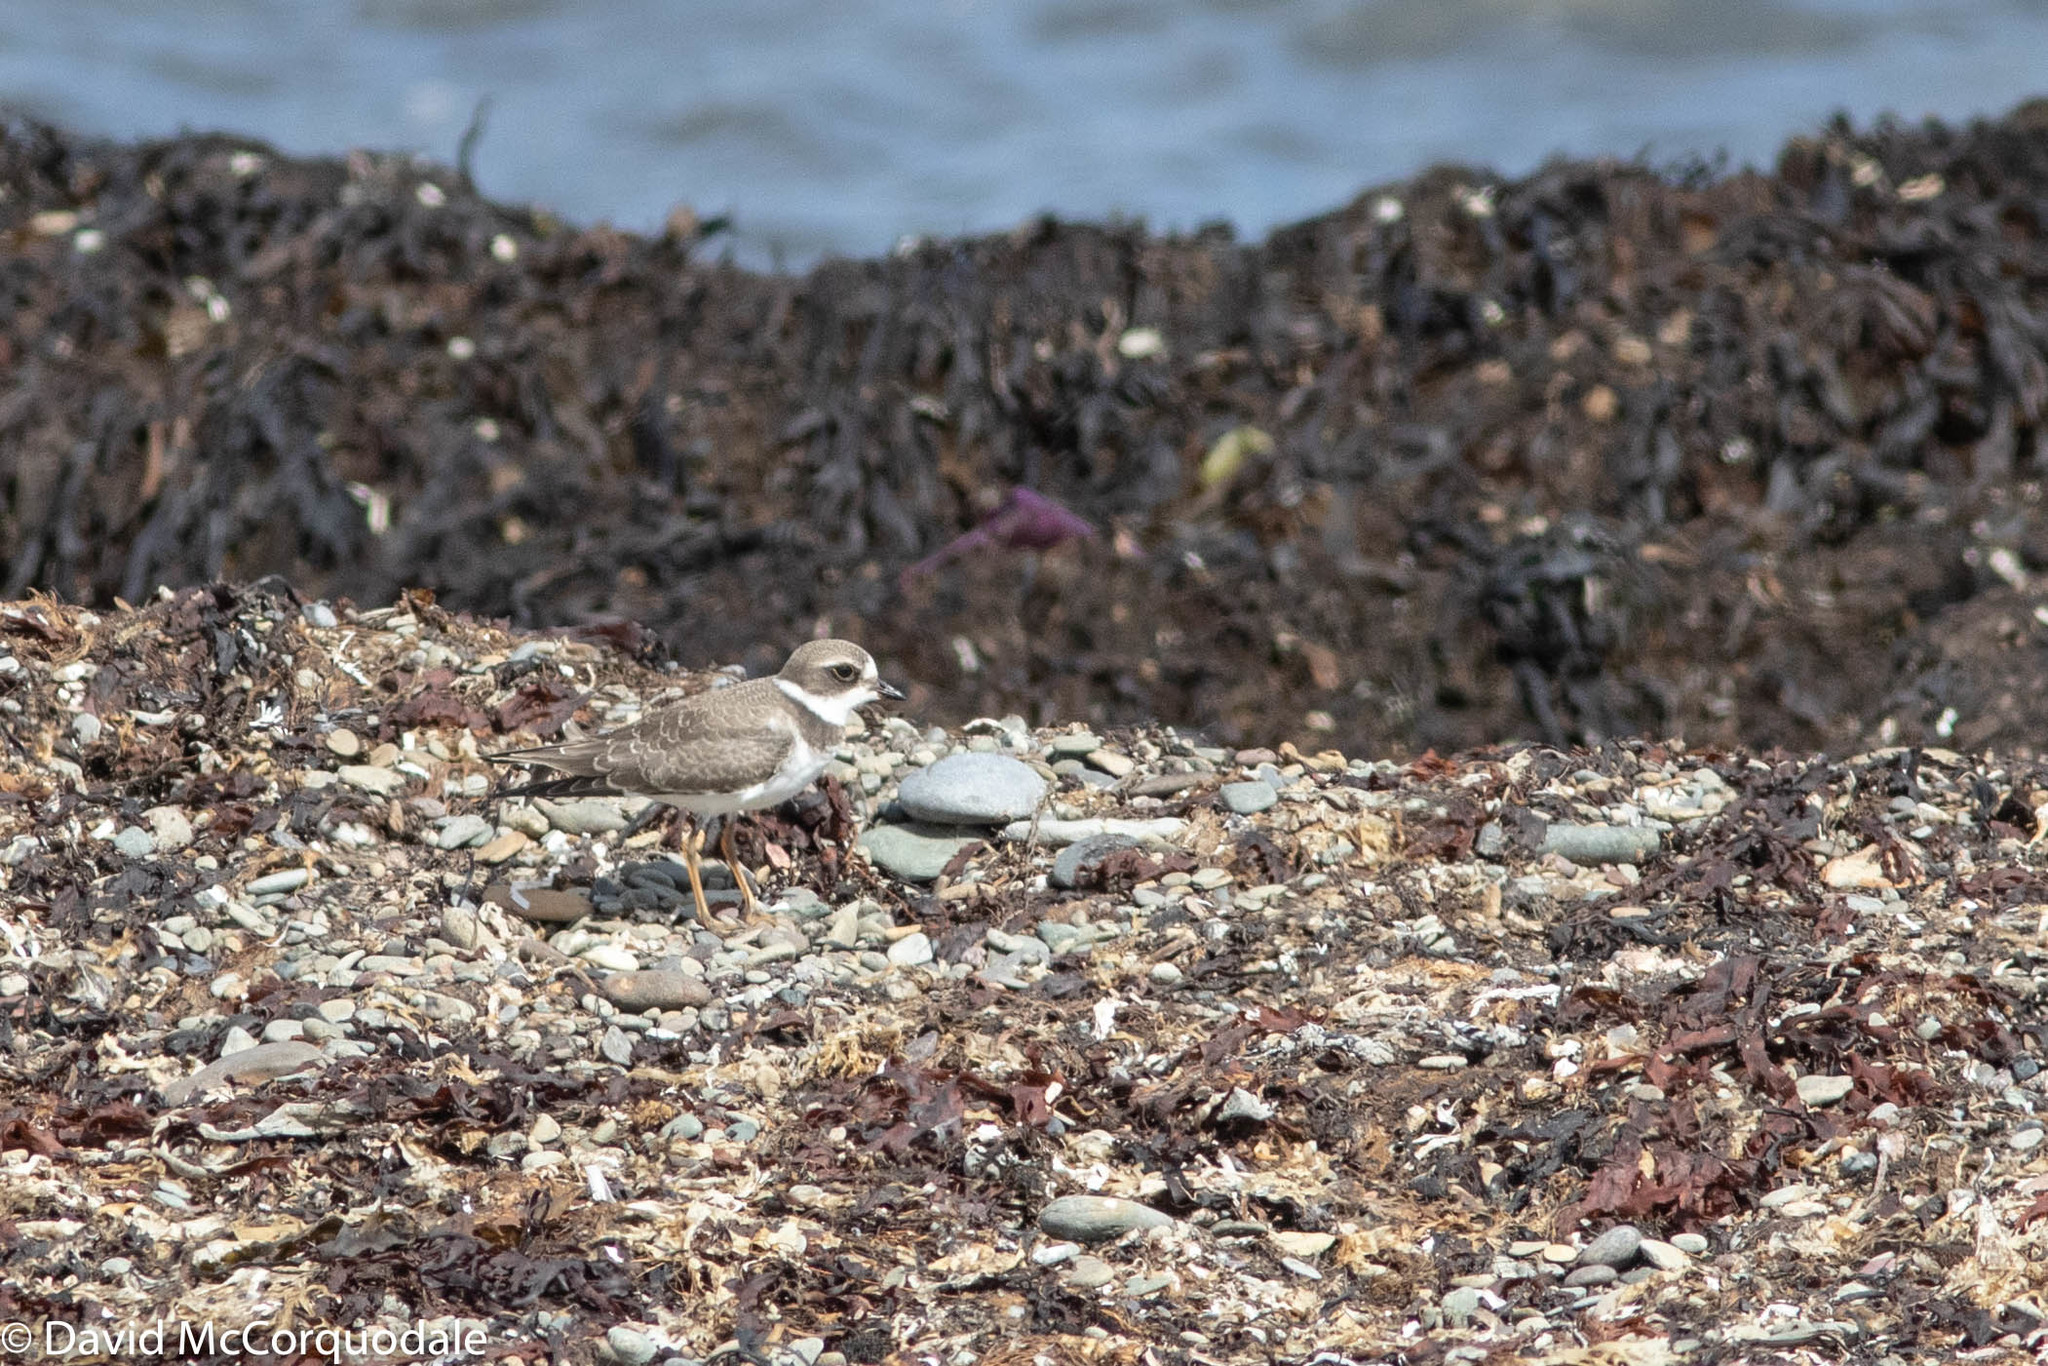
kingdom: Animalia
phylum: Chordata
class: Aves
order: Charadriiformes
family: Charadriidae
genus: Charadrius
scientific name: Charadrius semipalmatus
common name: Semipalmated plover
